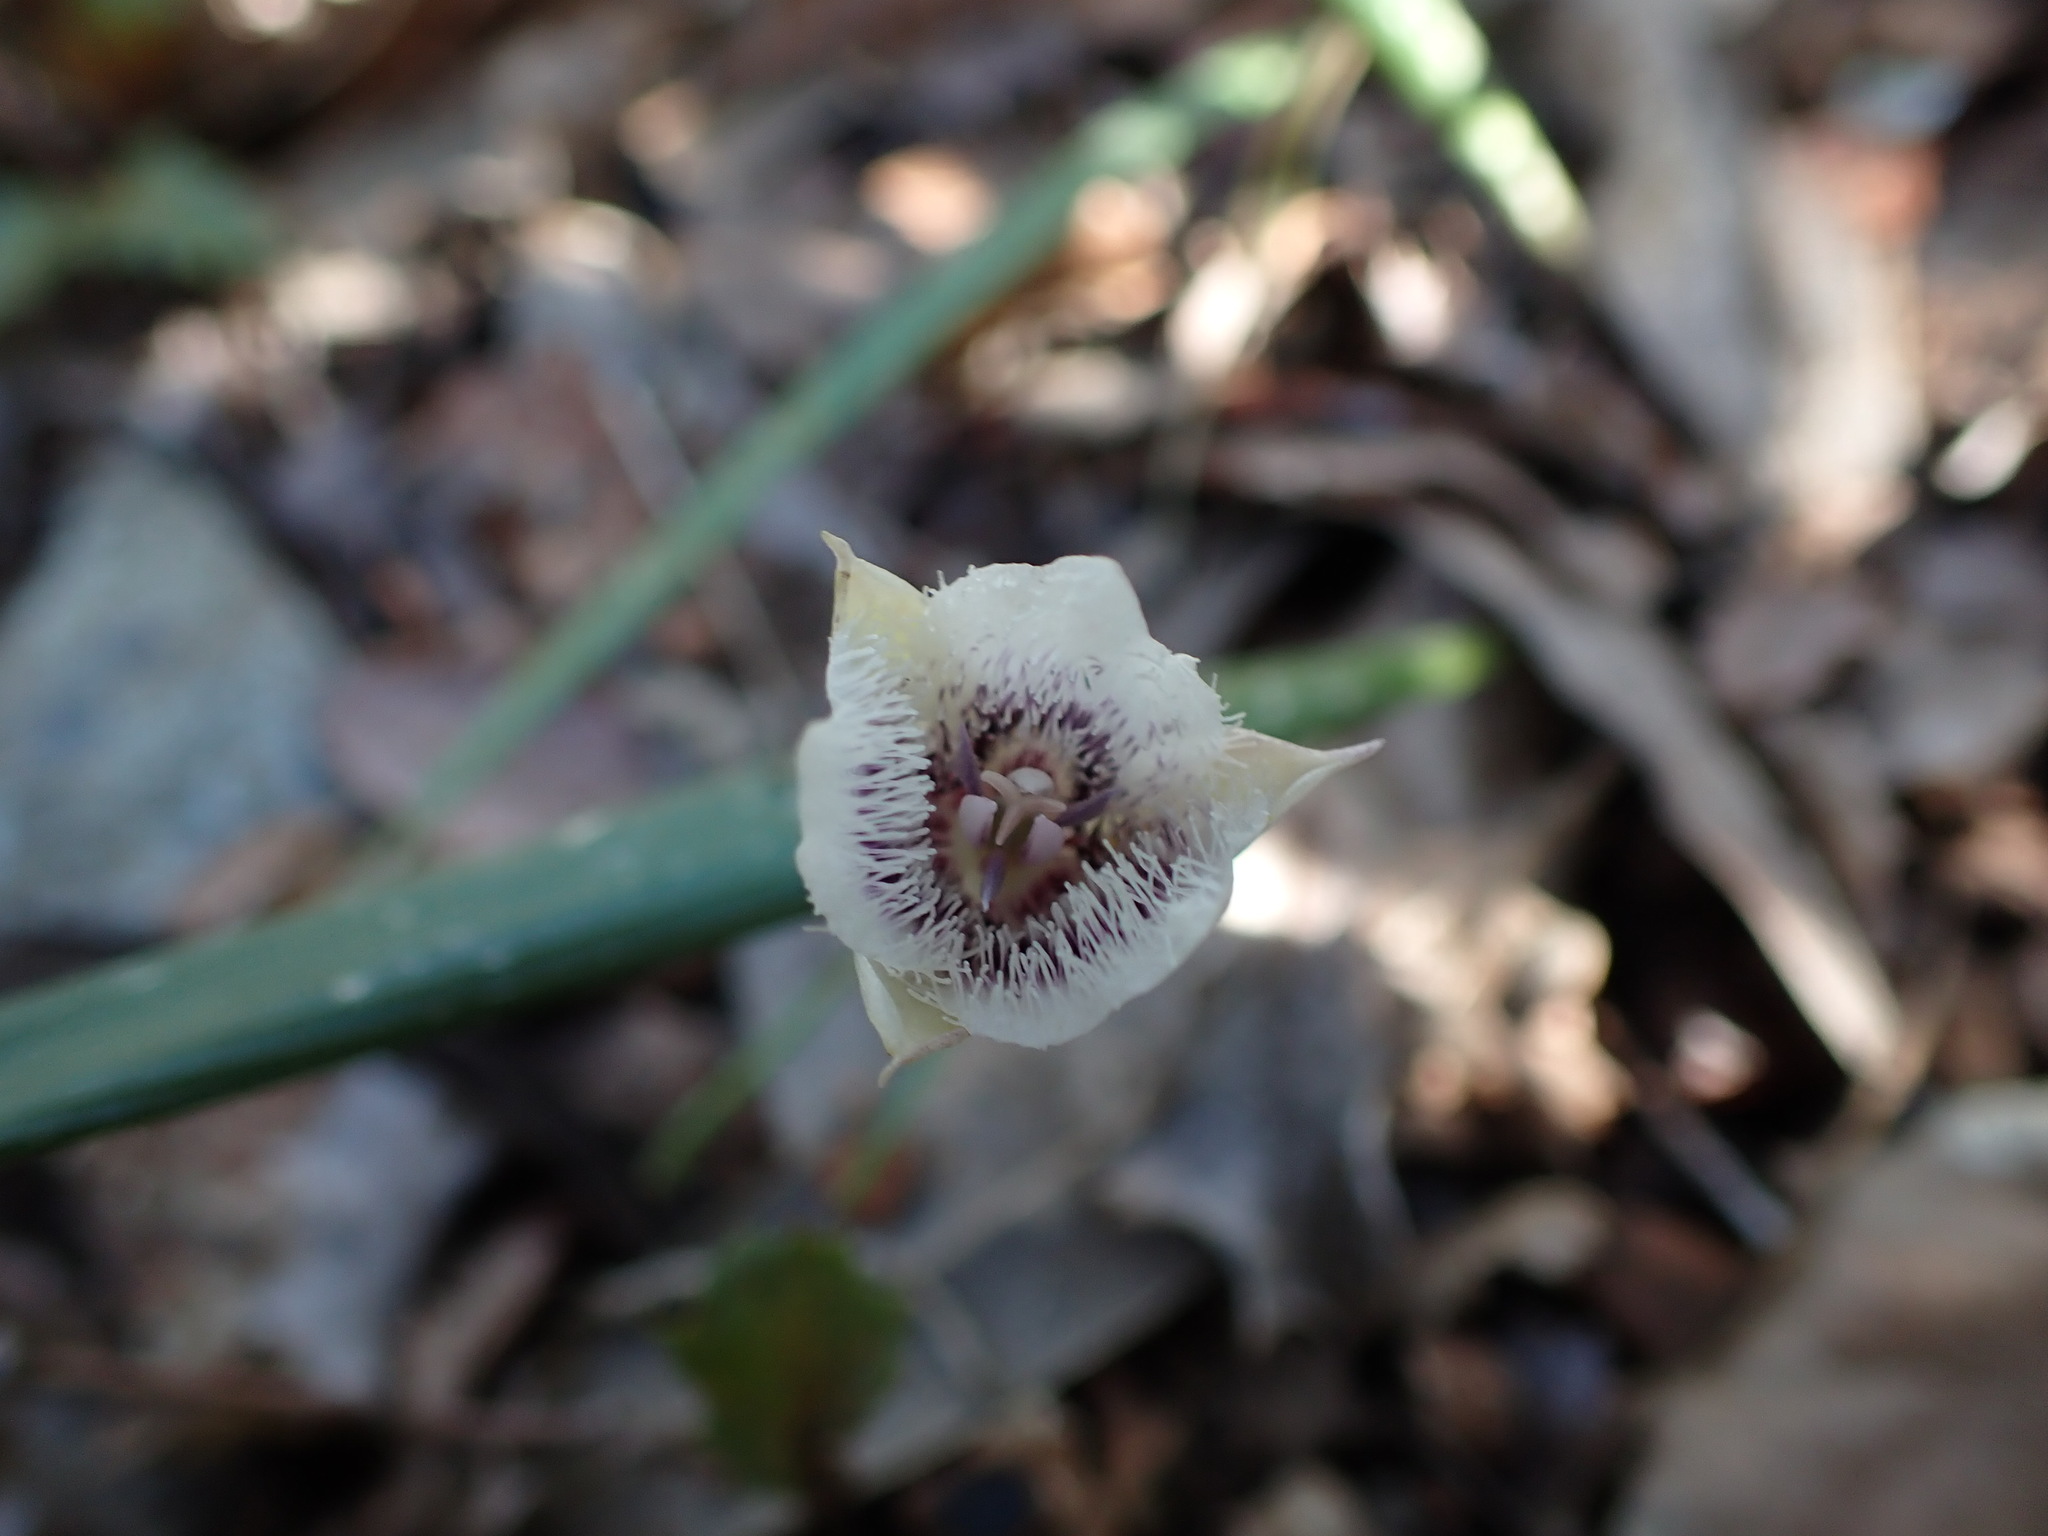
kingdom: Plantae
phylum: Tracheophyta
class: Liliopsida
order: Liliales
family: Liliaceae
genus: Calochortus
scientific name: Calochortus tolmiei
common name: Pussy-ears
